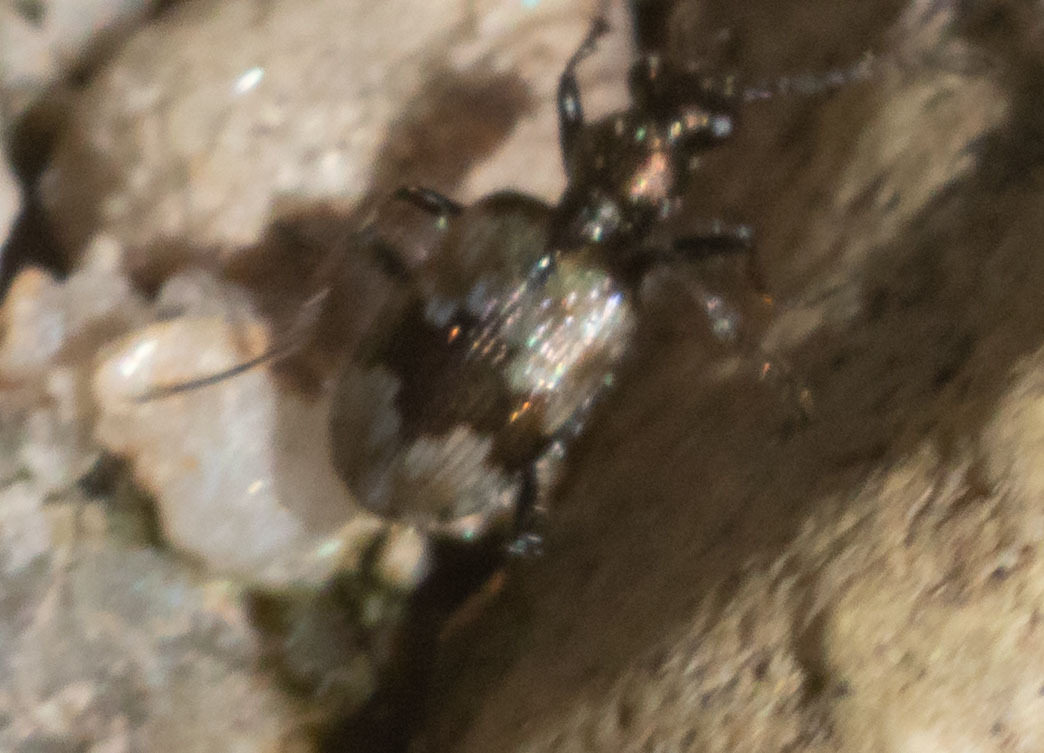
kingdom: Animalia
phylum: Arthropoda
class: Insecta
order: Coleoptera
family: Carabidae
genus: Lachnophorus
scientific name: Lachnophorus elegantulus
